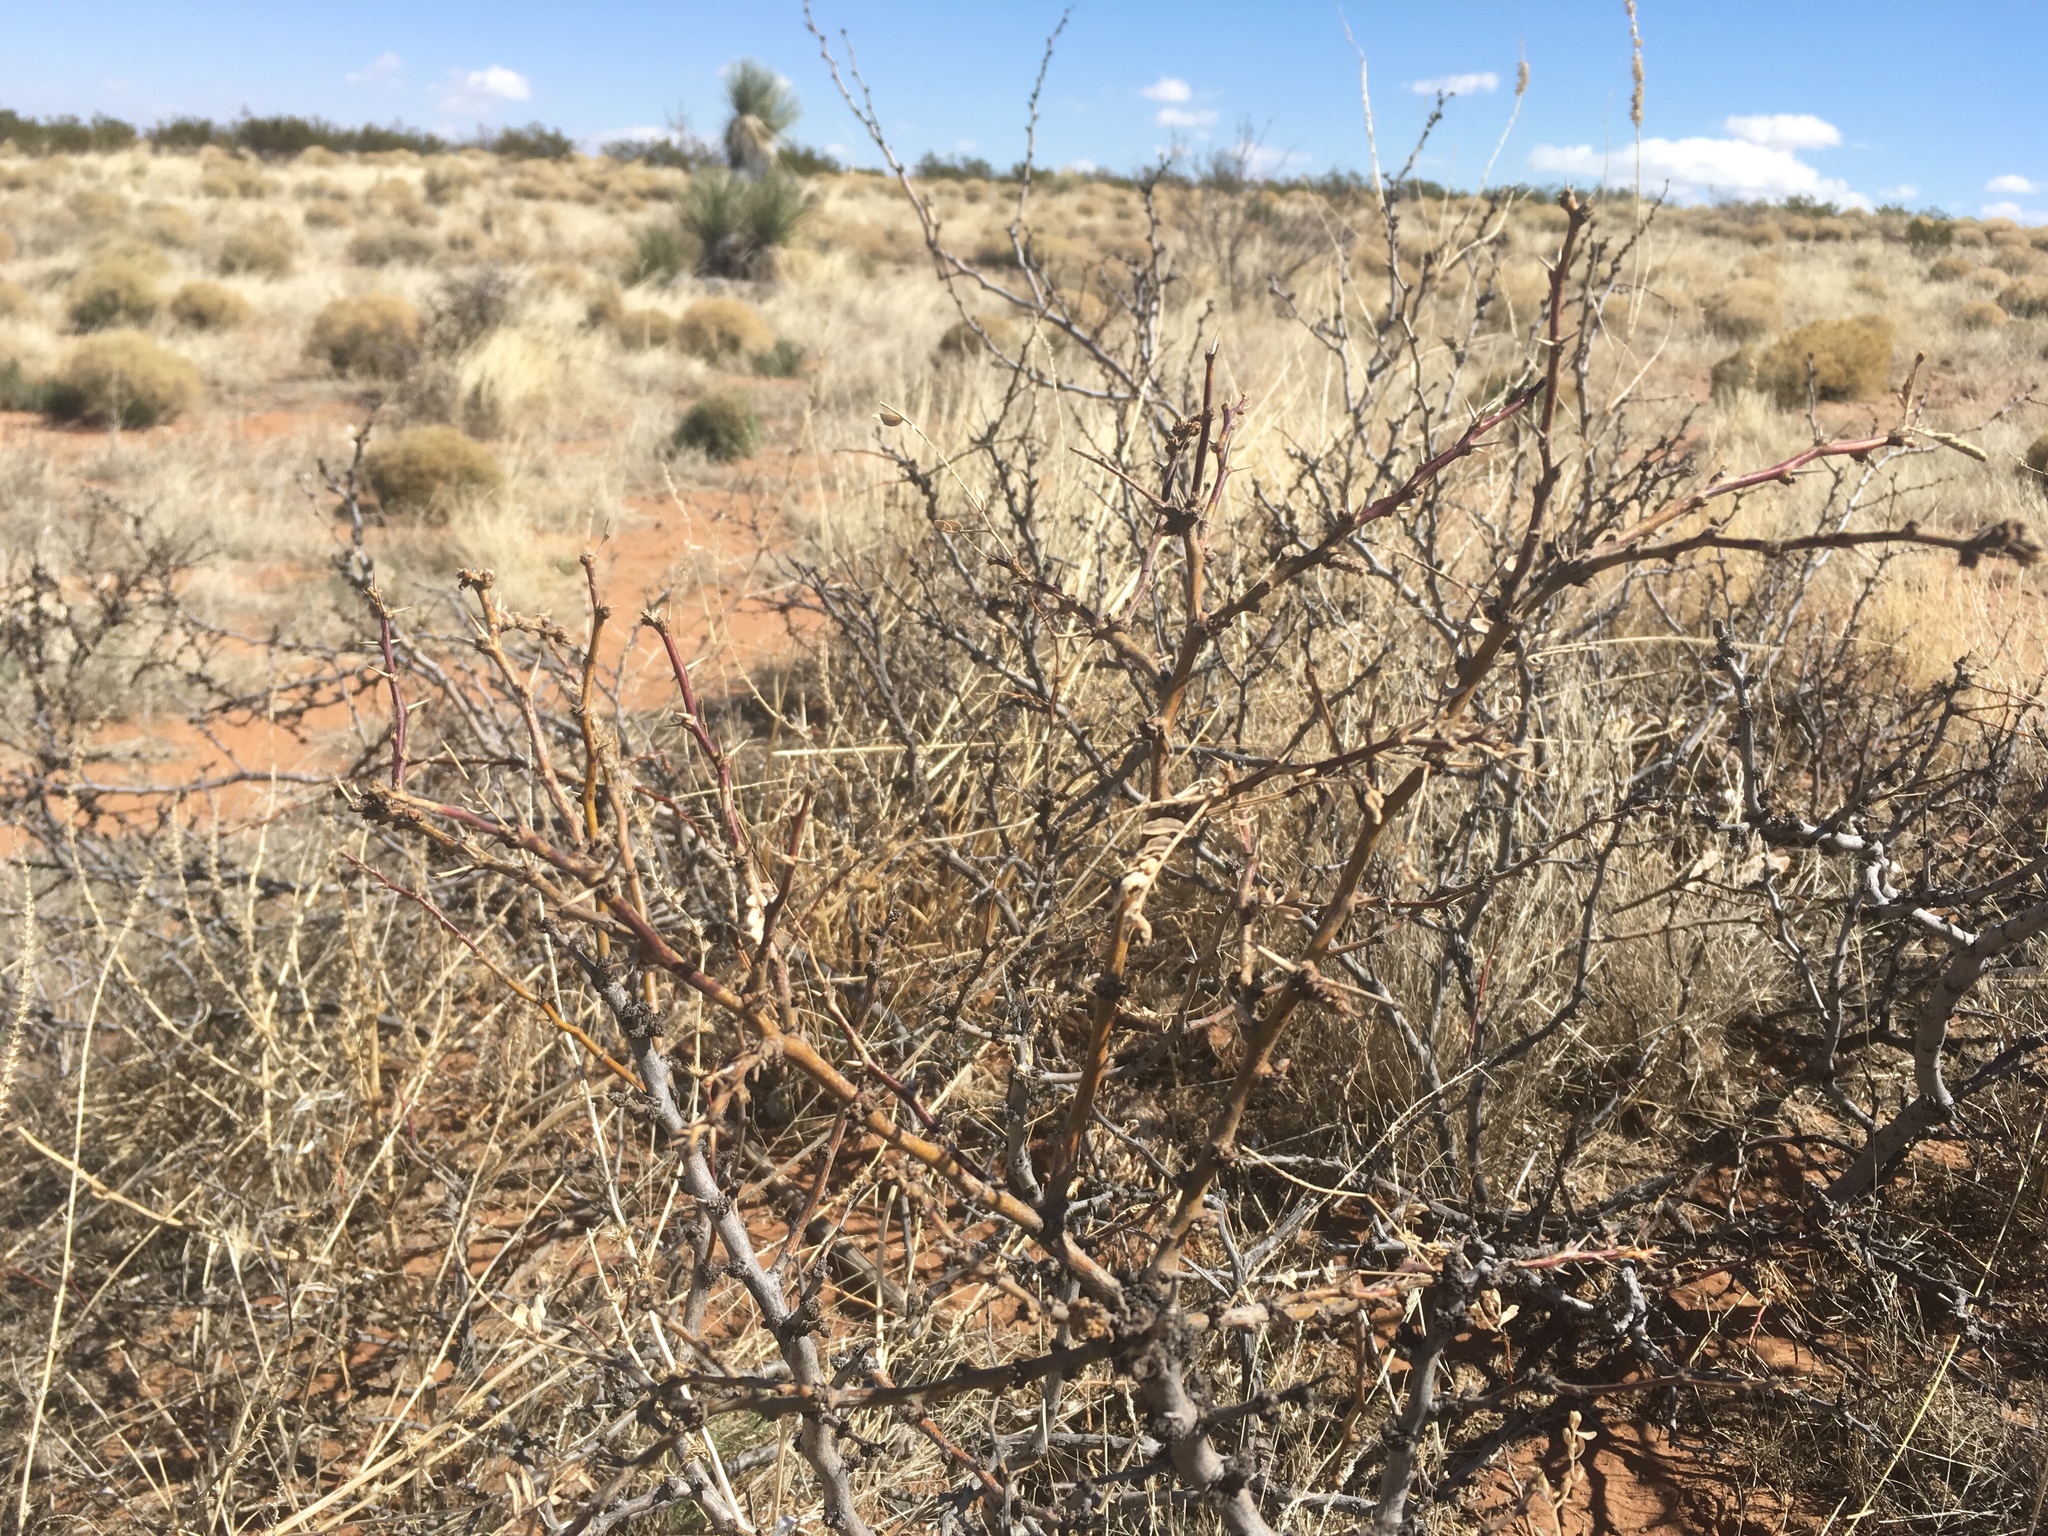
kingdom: Plantae
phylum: Tracheophyta
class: Magnoliopsida
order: Fabales
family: Fabaceae
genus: Prosopis
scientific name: Prosopis glandulosa
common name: Honey mesquite
